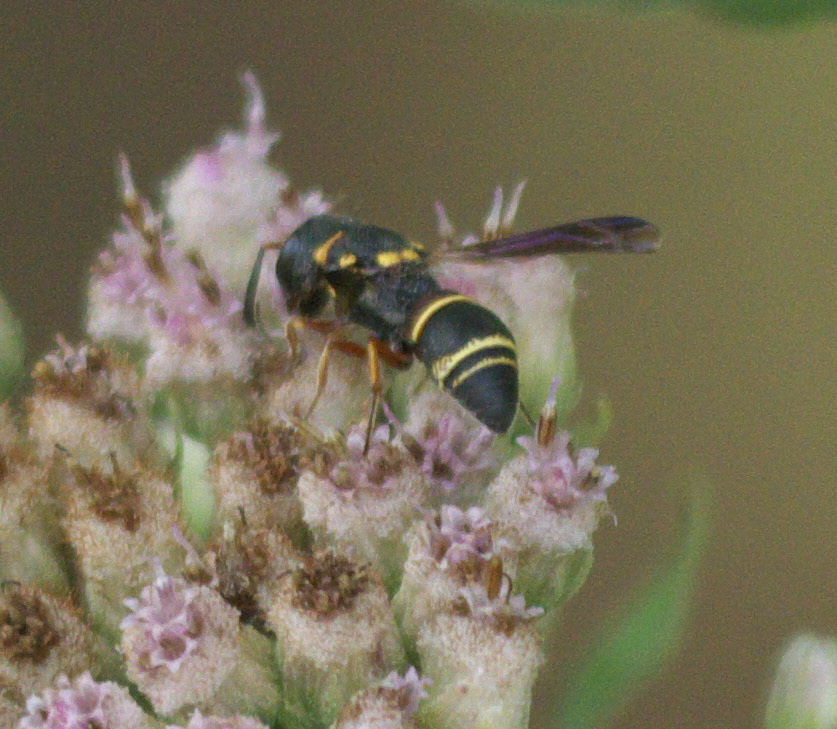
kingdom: Animalia
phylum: Arthropoda
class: Insecta
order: Hymenoptera
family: Eumenidae
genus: Cyrtolabulus
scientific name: Cyrtolabulus mutinensis
